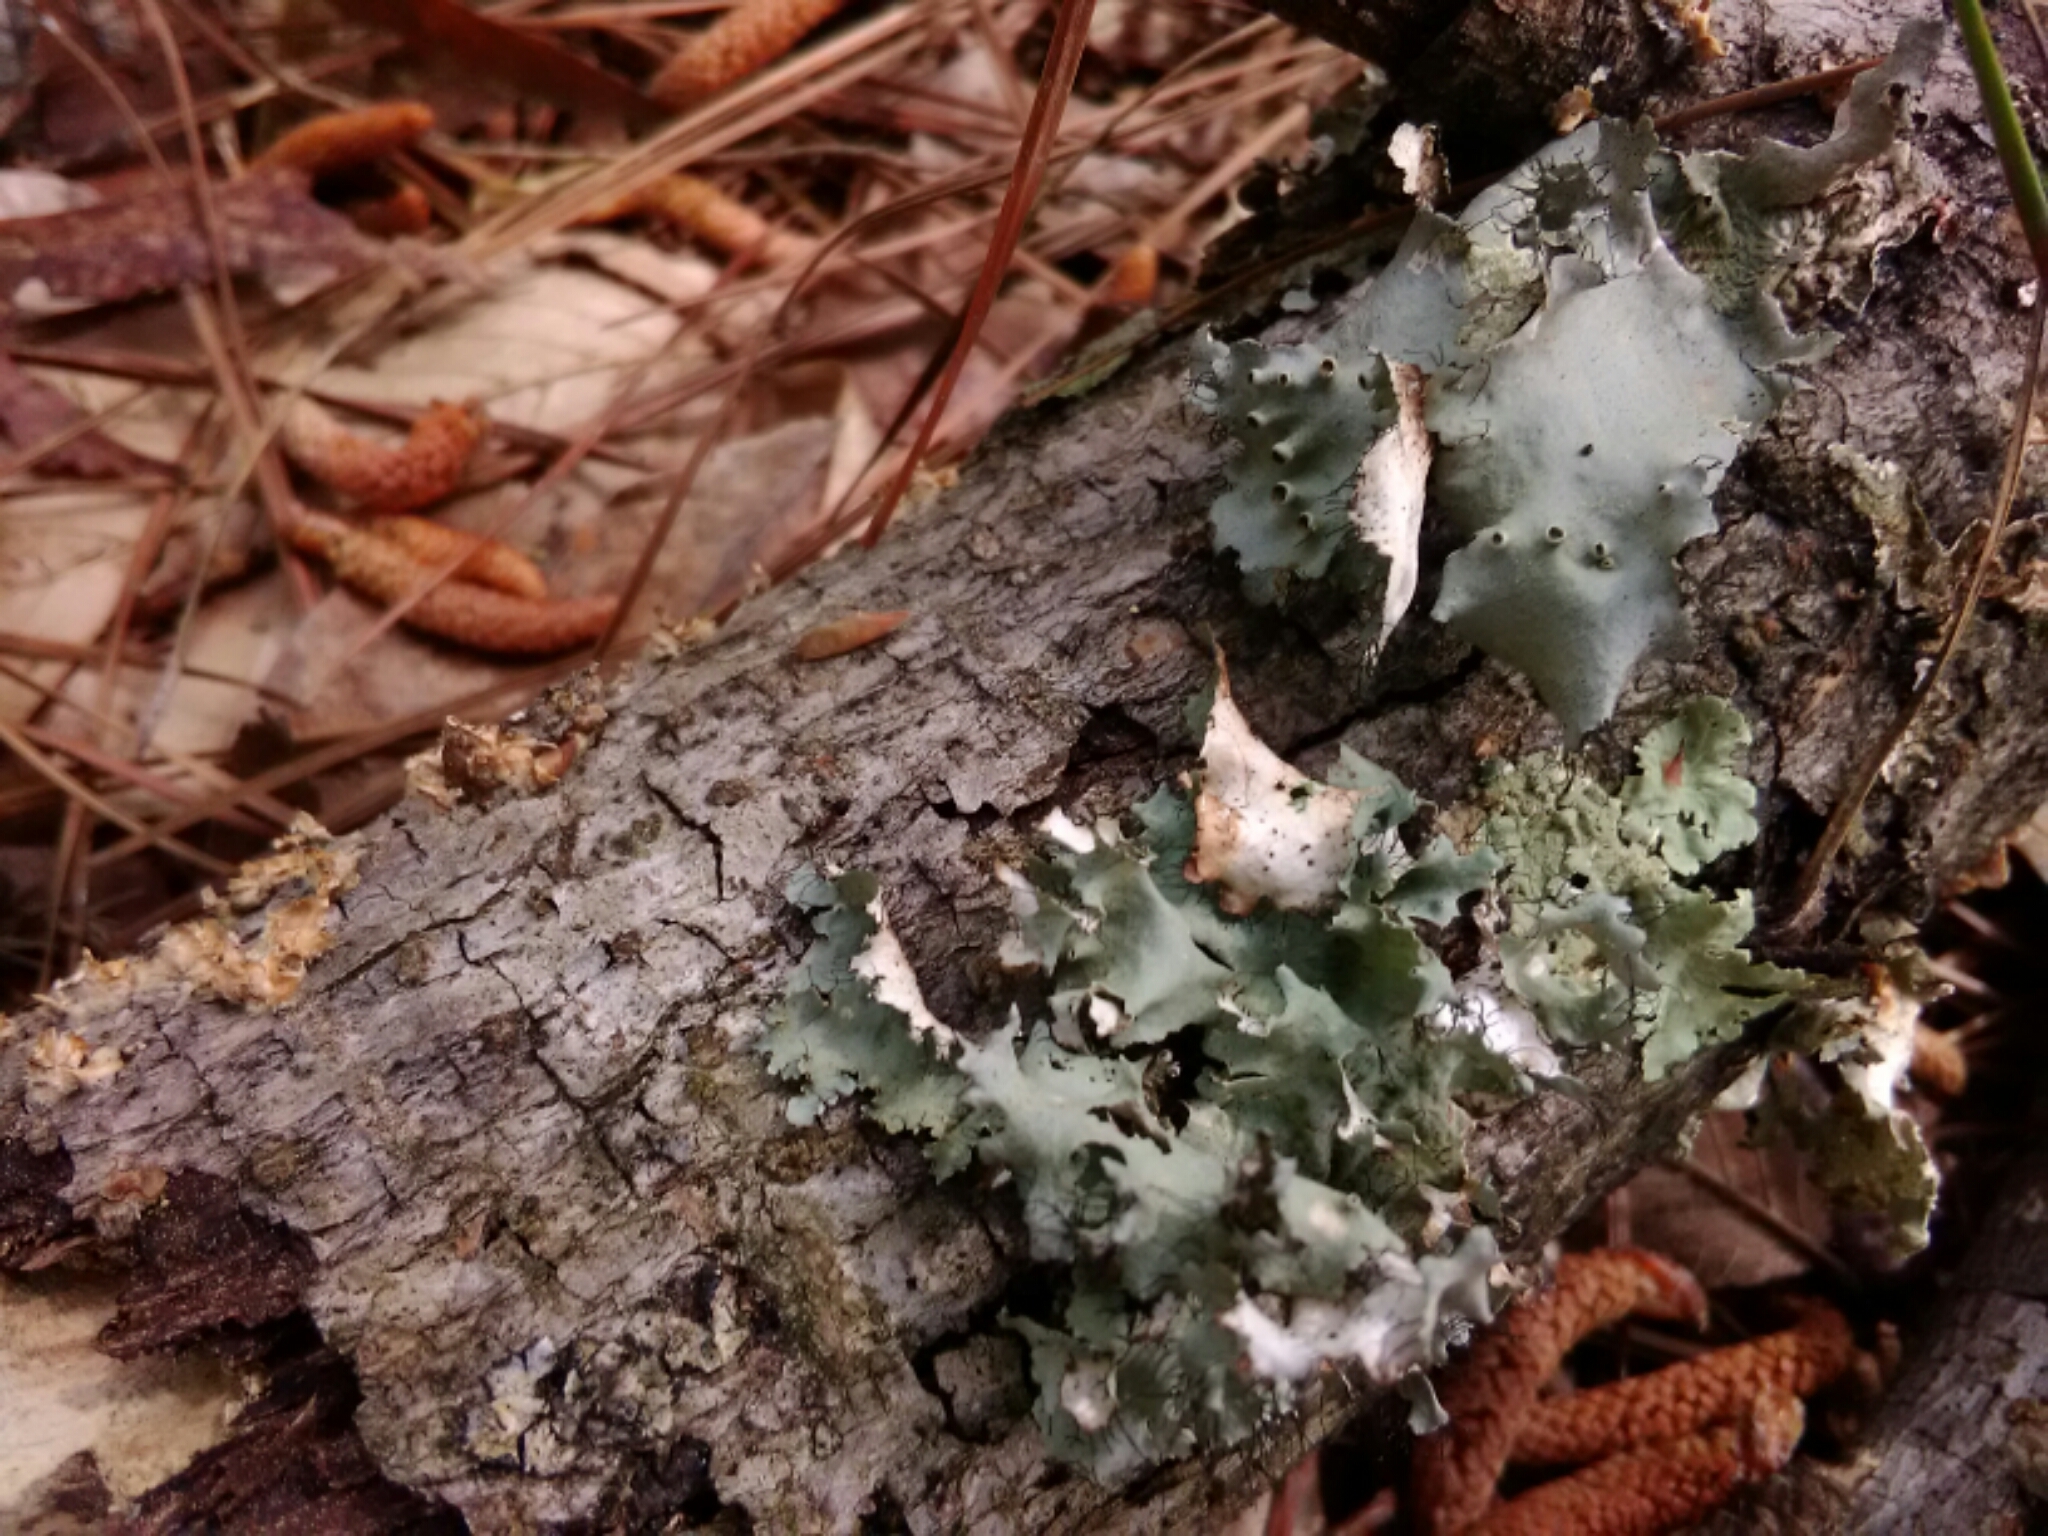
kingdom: Fungi
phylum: Ascomycota
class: Lecanoromycetes
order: Lecanorales
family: Parmeliaceae
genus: Parmotrema
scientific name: Parmotrema hypotropum
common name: Powdered ruffle lichen
